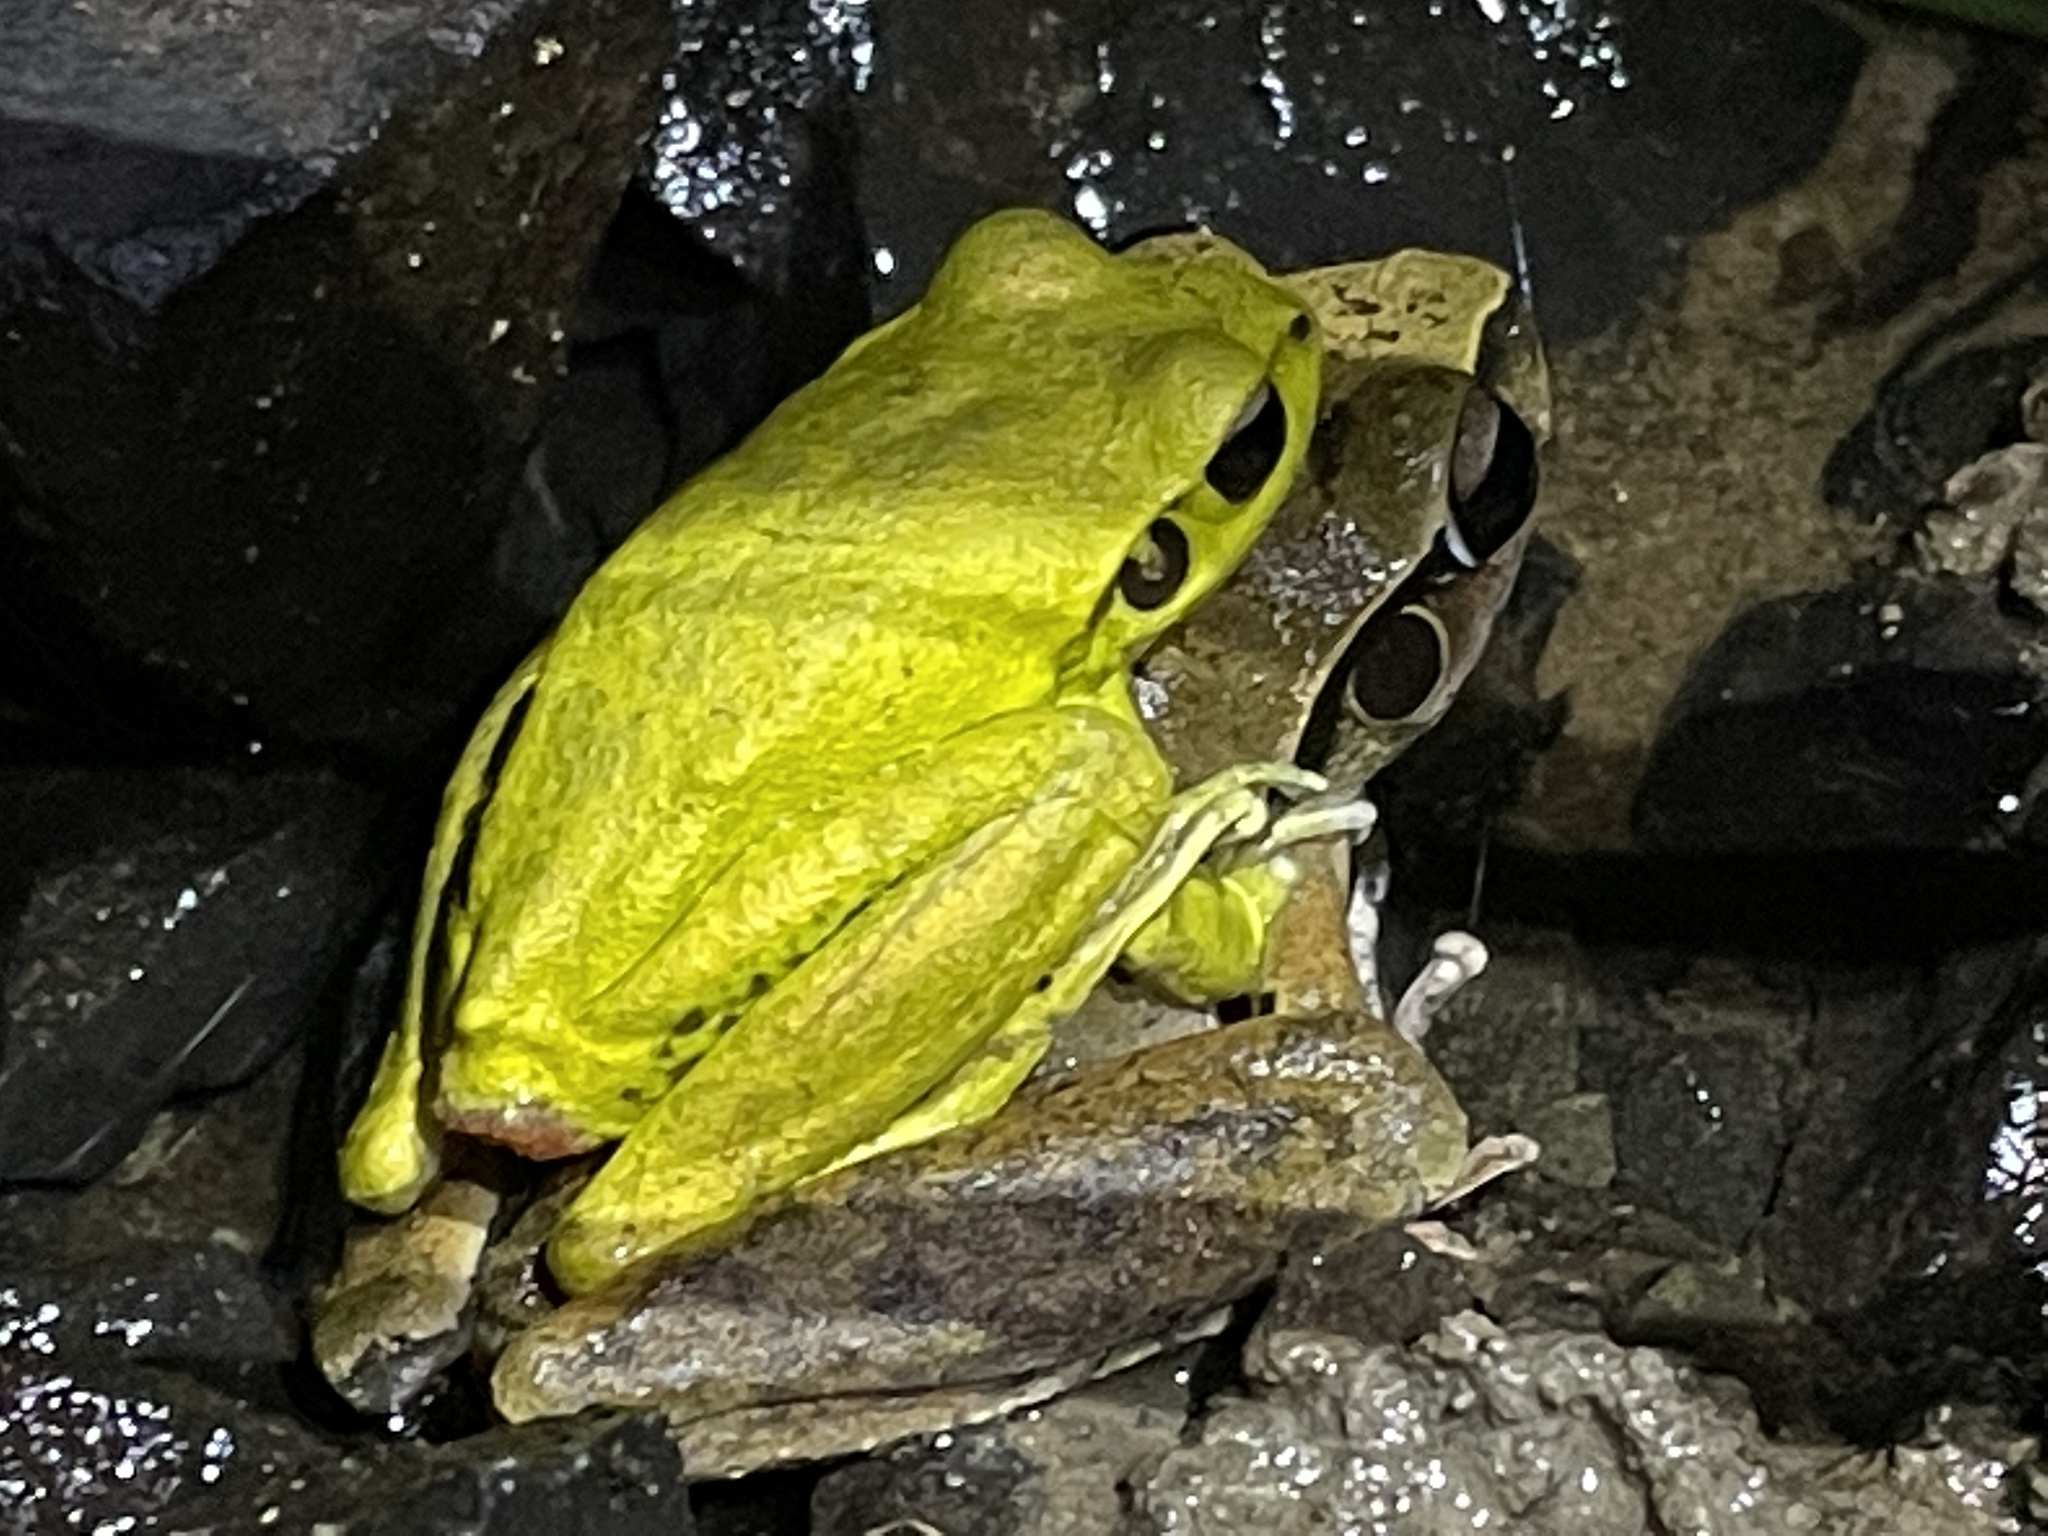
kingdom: Animalia
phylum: Chordata
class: Amphibia
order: Anura
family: Pelodryadidae
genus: Ranoidea
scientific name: Ranoidea wilcoxii
